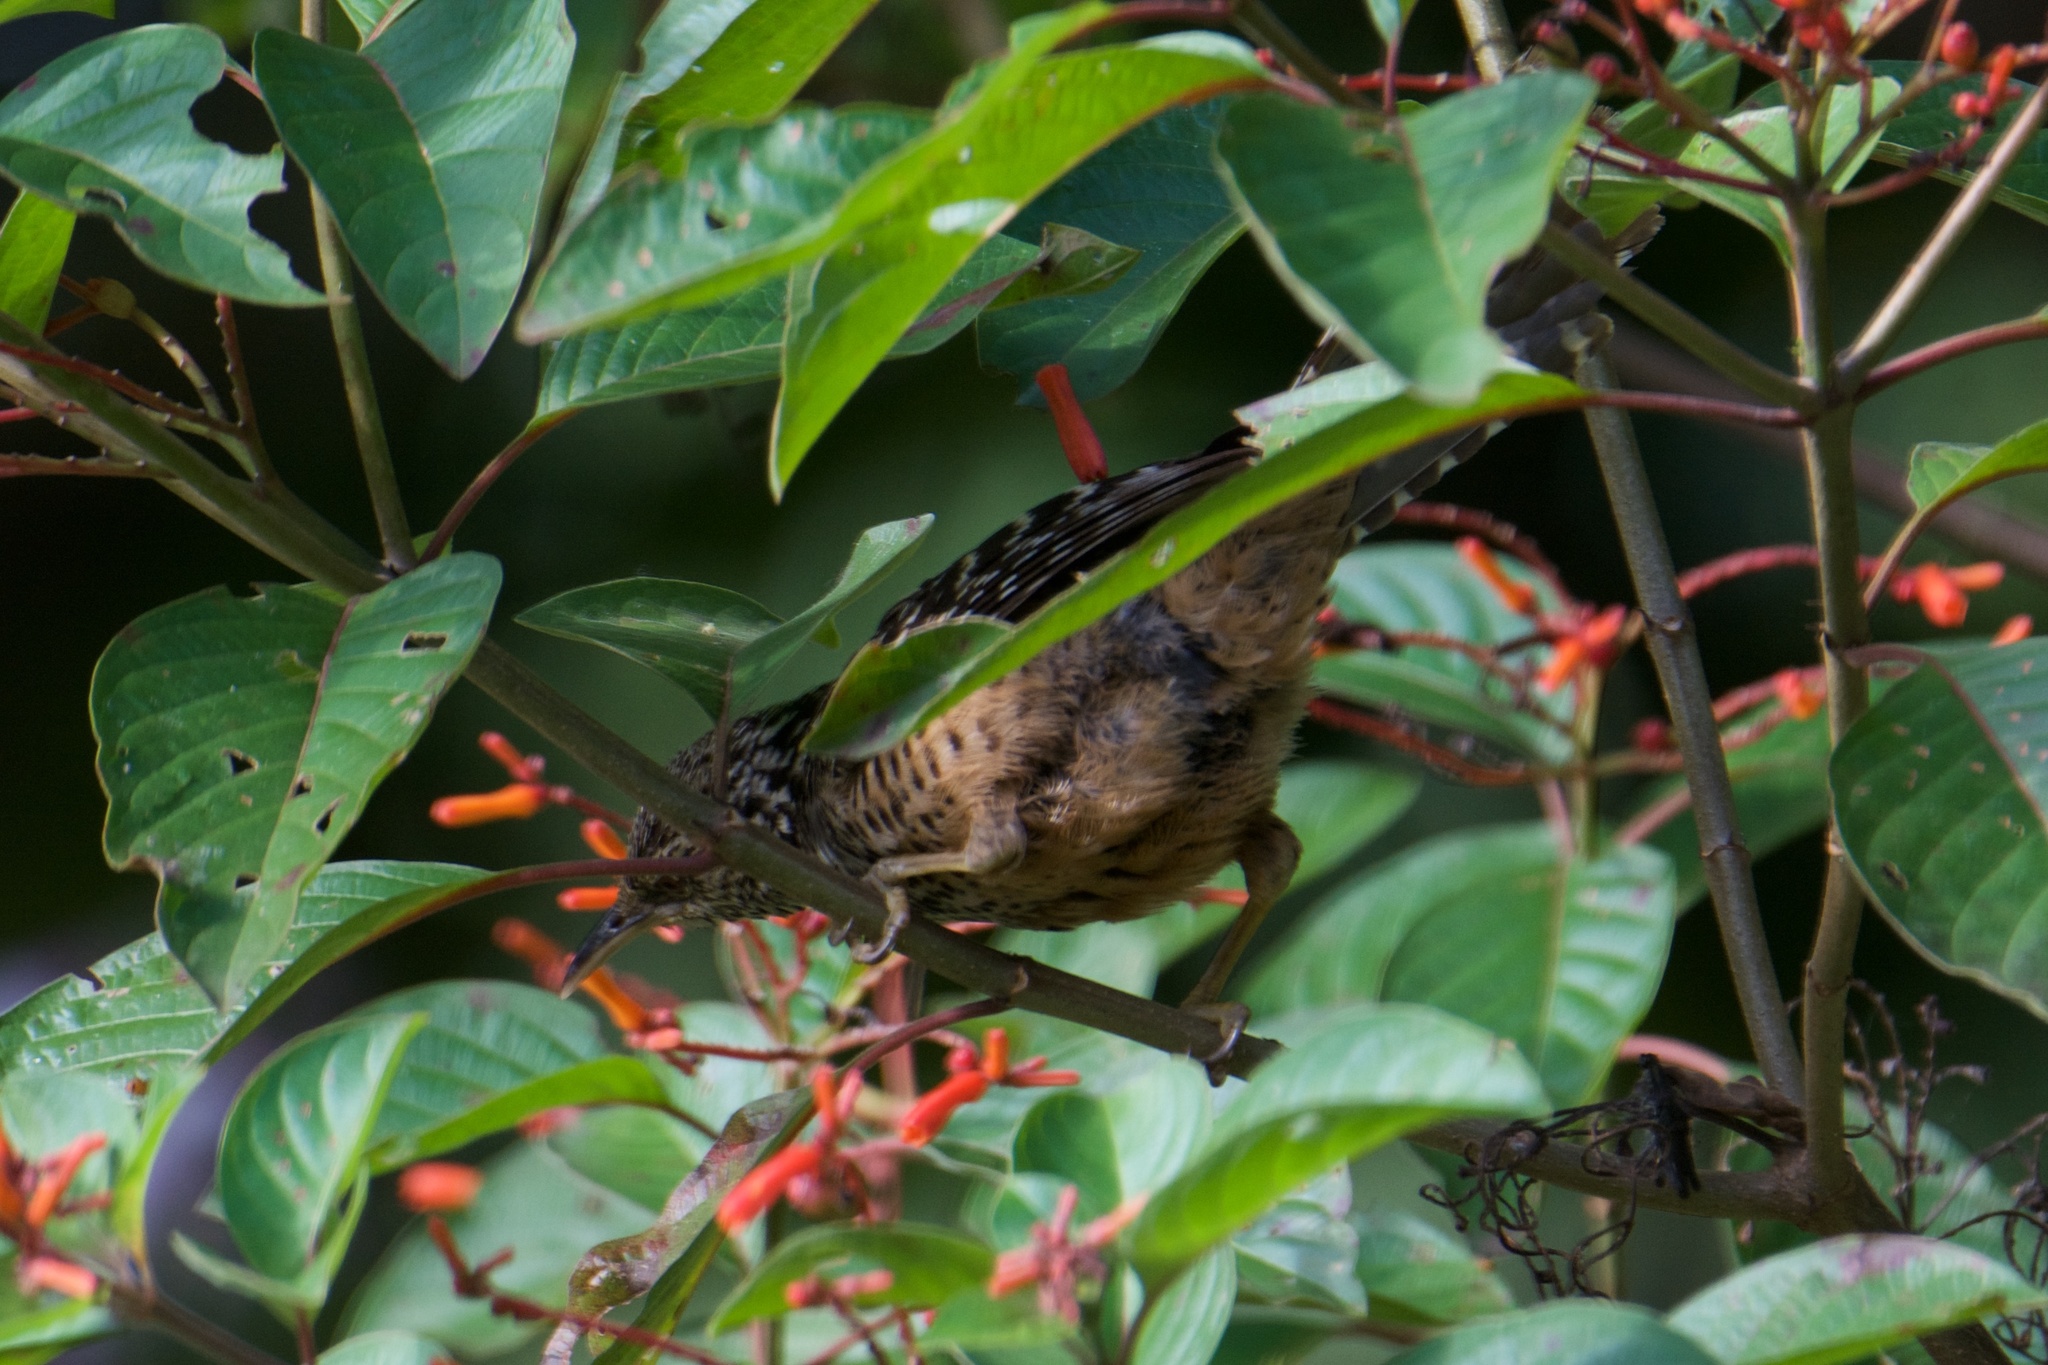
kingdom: Animalia
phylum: Chordata
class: Aves
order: Passeriformes
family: Troglodytidae
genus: Campylorhynchus
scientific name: Campylorhynchus zonatus
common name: Band-backed wren
